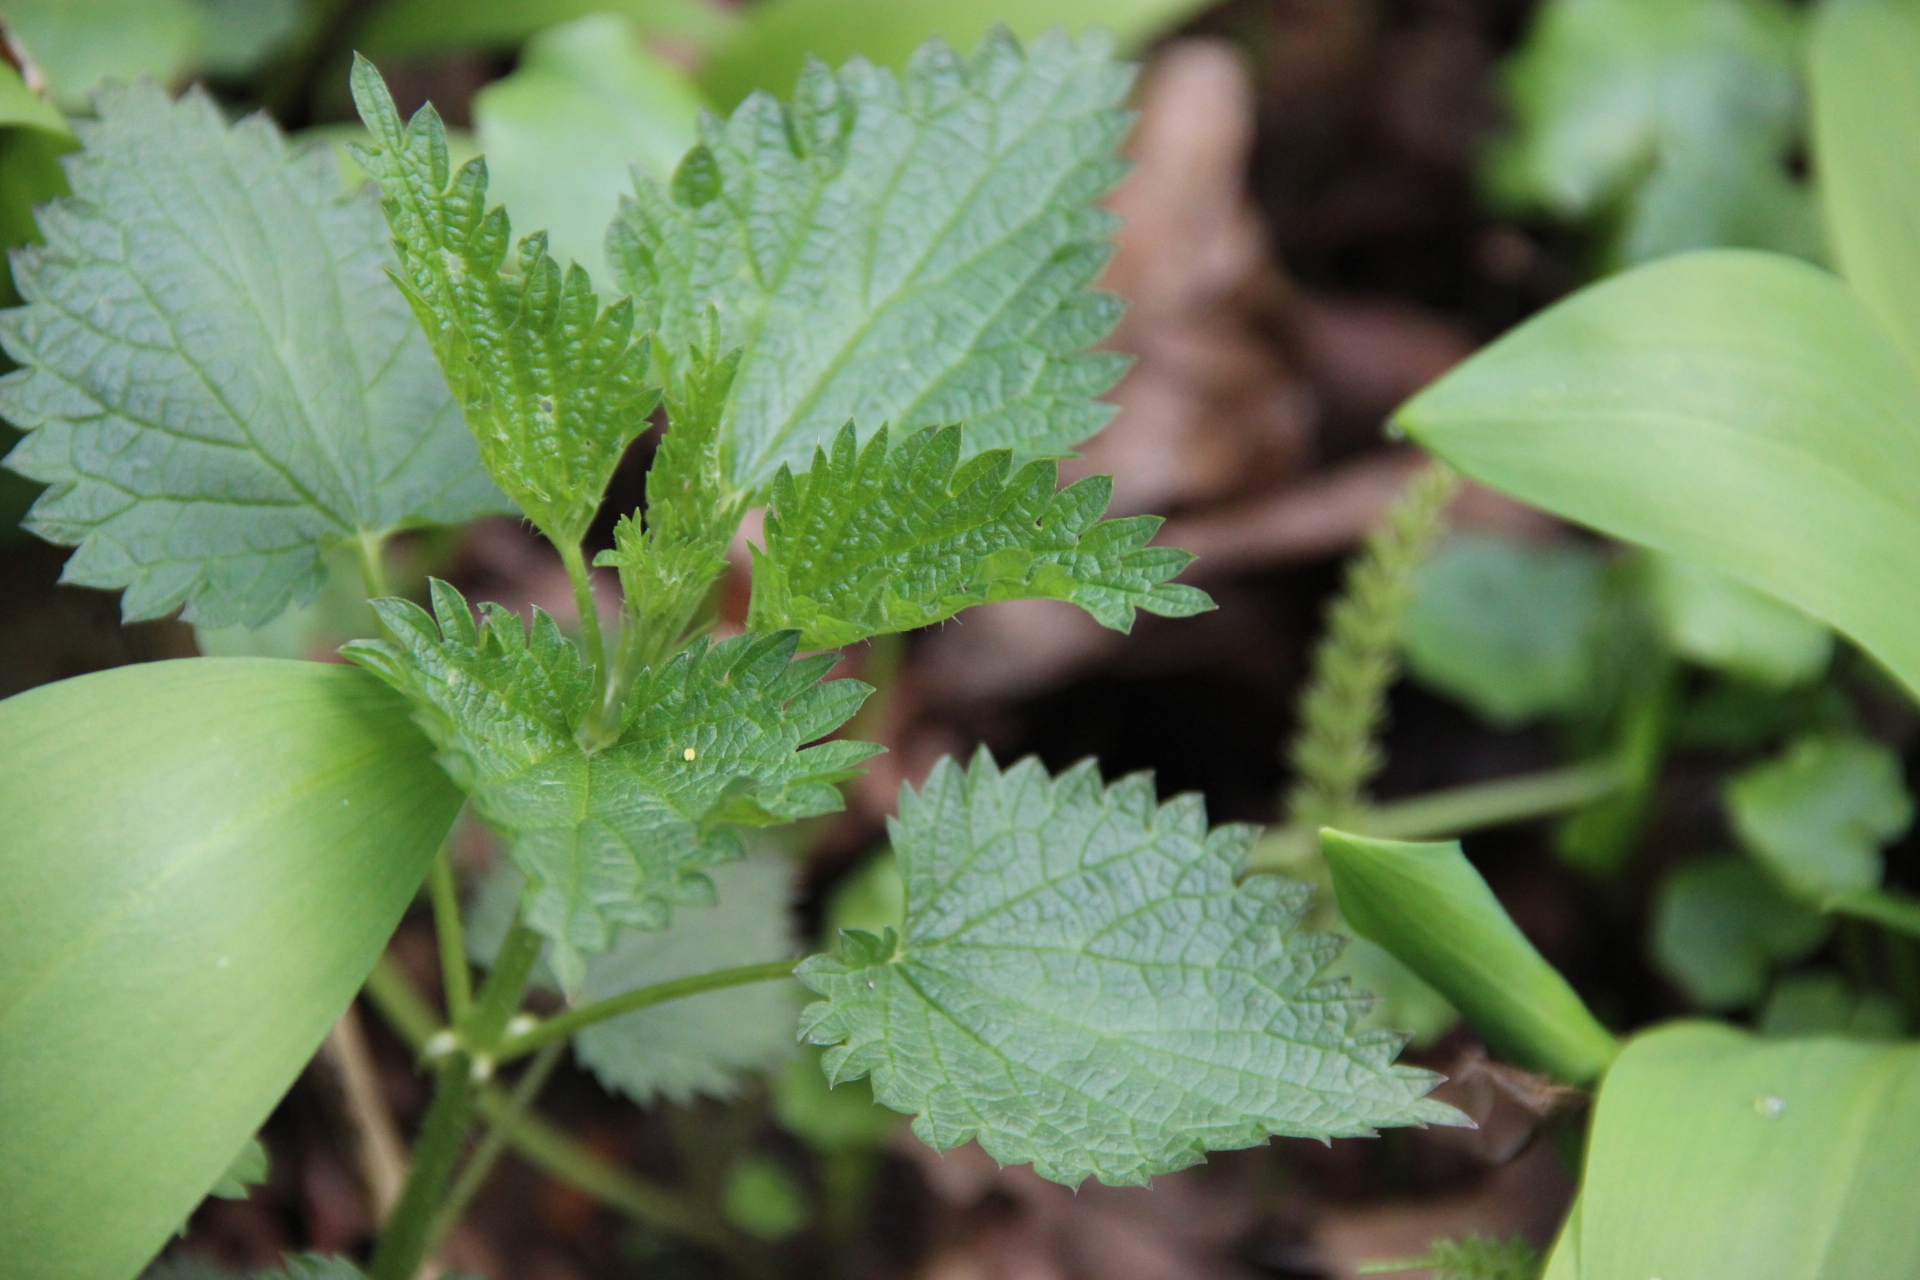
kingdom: Plantae
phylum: Tracheophyta
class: Magnoliopsida
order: Rosales
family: Urticaceae
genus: Urtica
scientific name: Urtica dioica
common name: Common nettle
